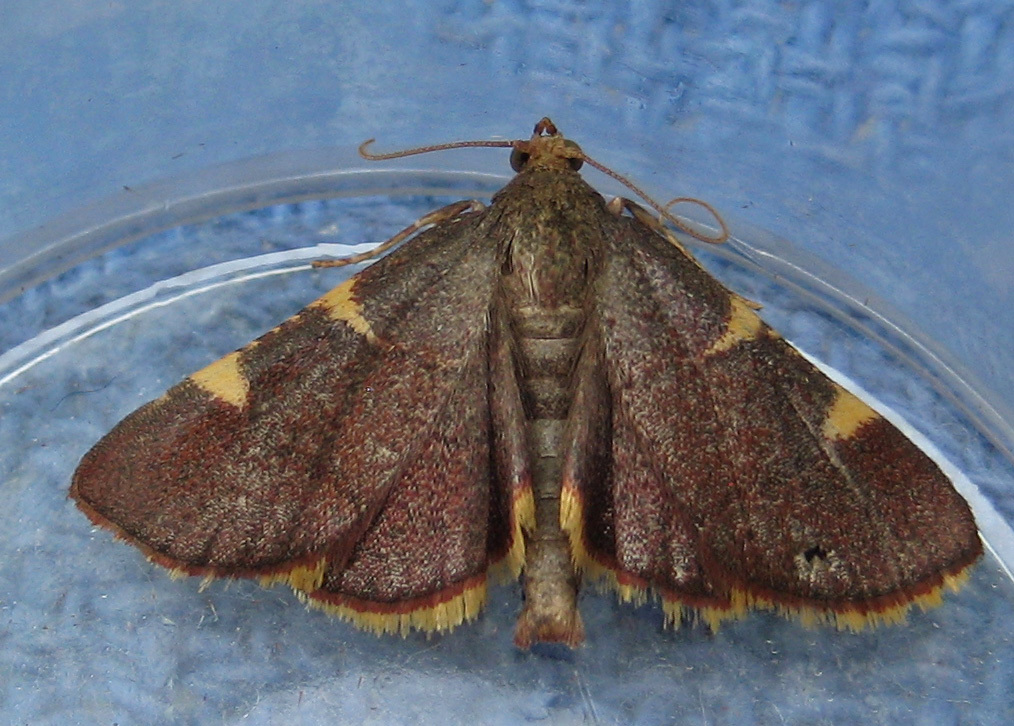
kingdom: Animalia
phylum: Arthropoda
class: Insecta
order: Lepidoptera
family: Pyralidae
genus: Hypsopygia
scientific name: Hypsopygia olinalis
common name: Yellow-fringed dolichomia moth
